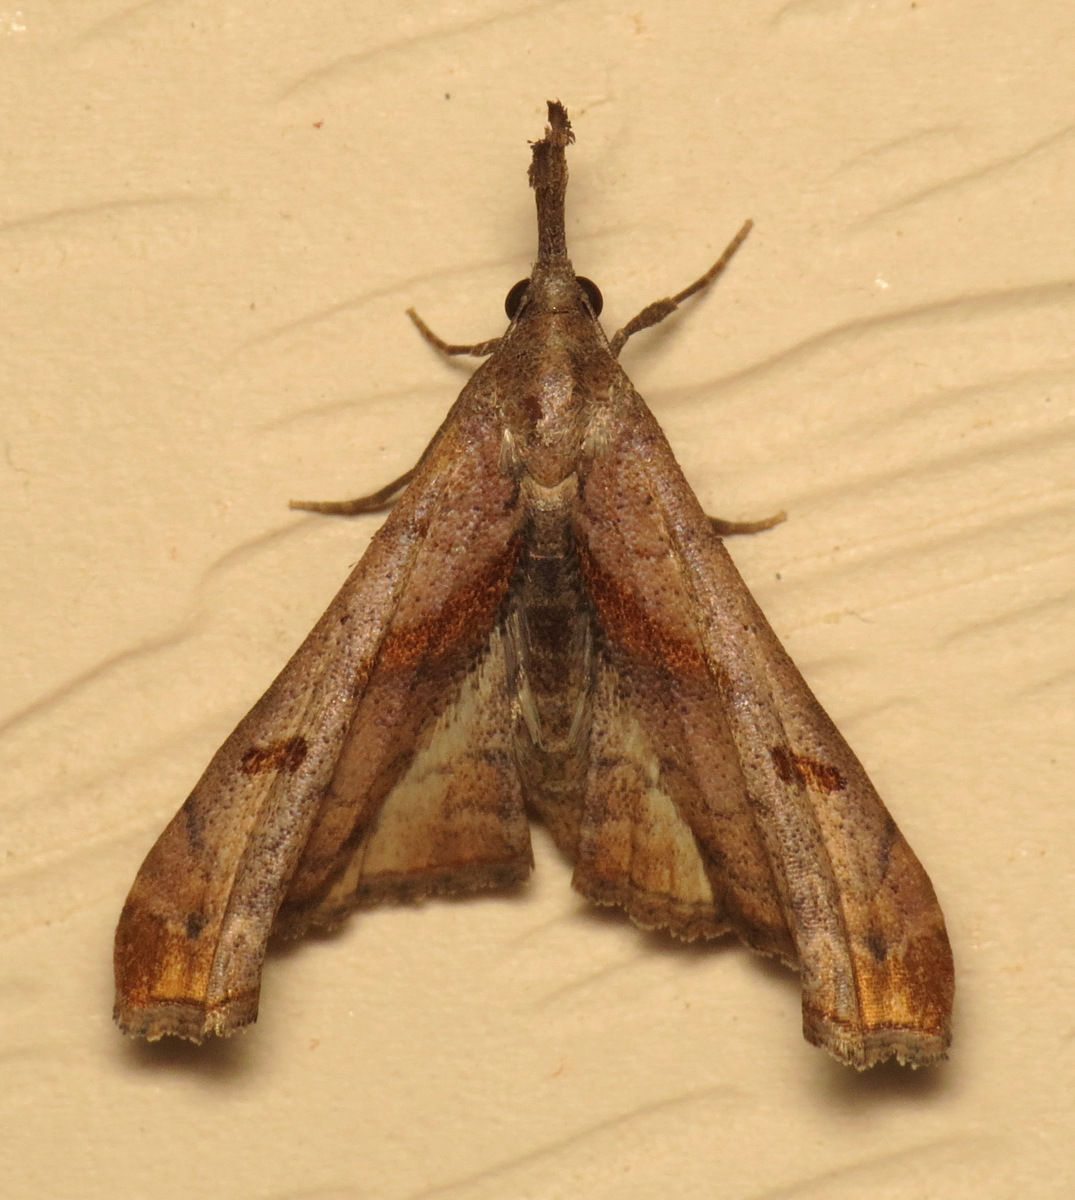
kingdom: Animalia
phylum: Arthropoda
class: Insecta
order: Lepidoptera
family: Erebidae
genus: Palthis
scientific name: Palthis angulalis
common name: Dark-spotted palthis moth
